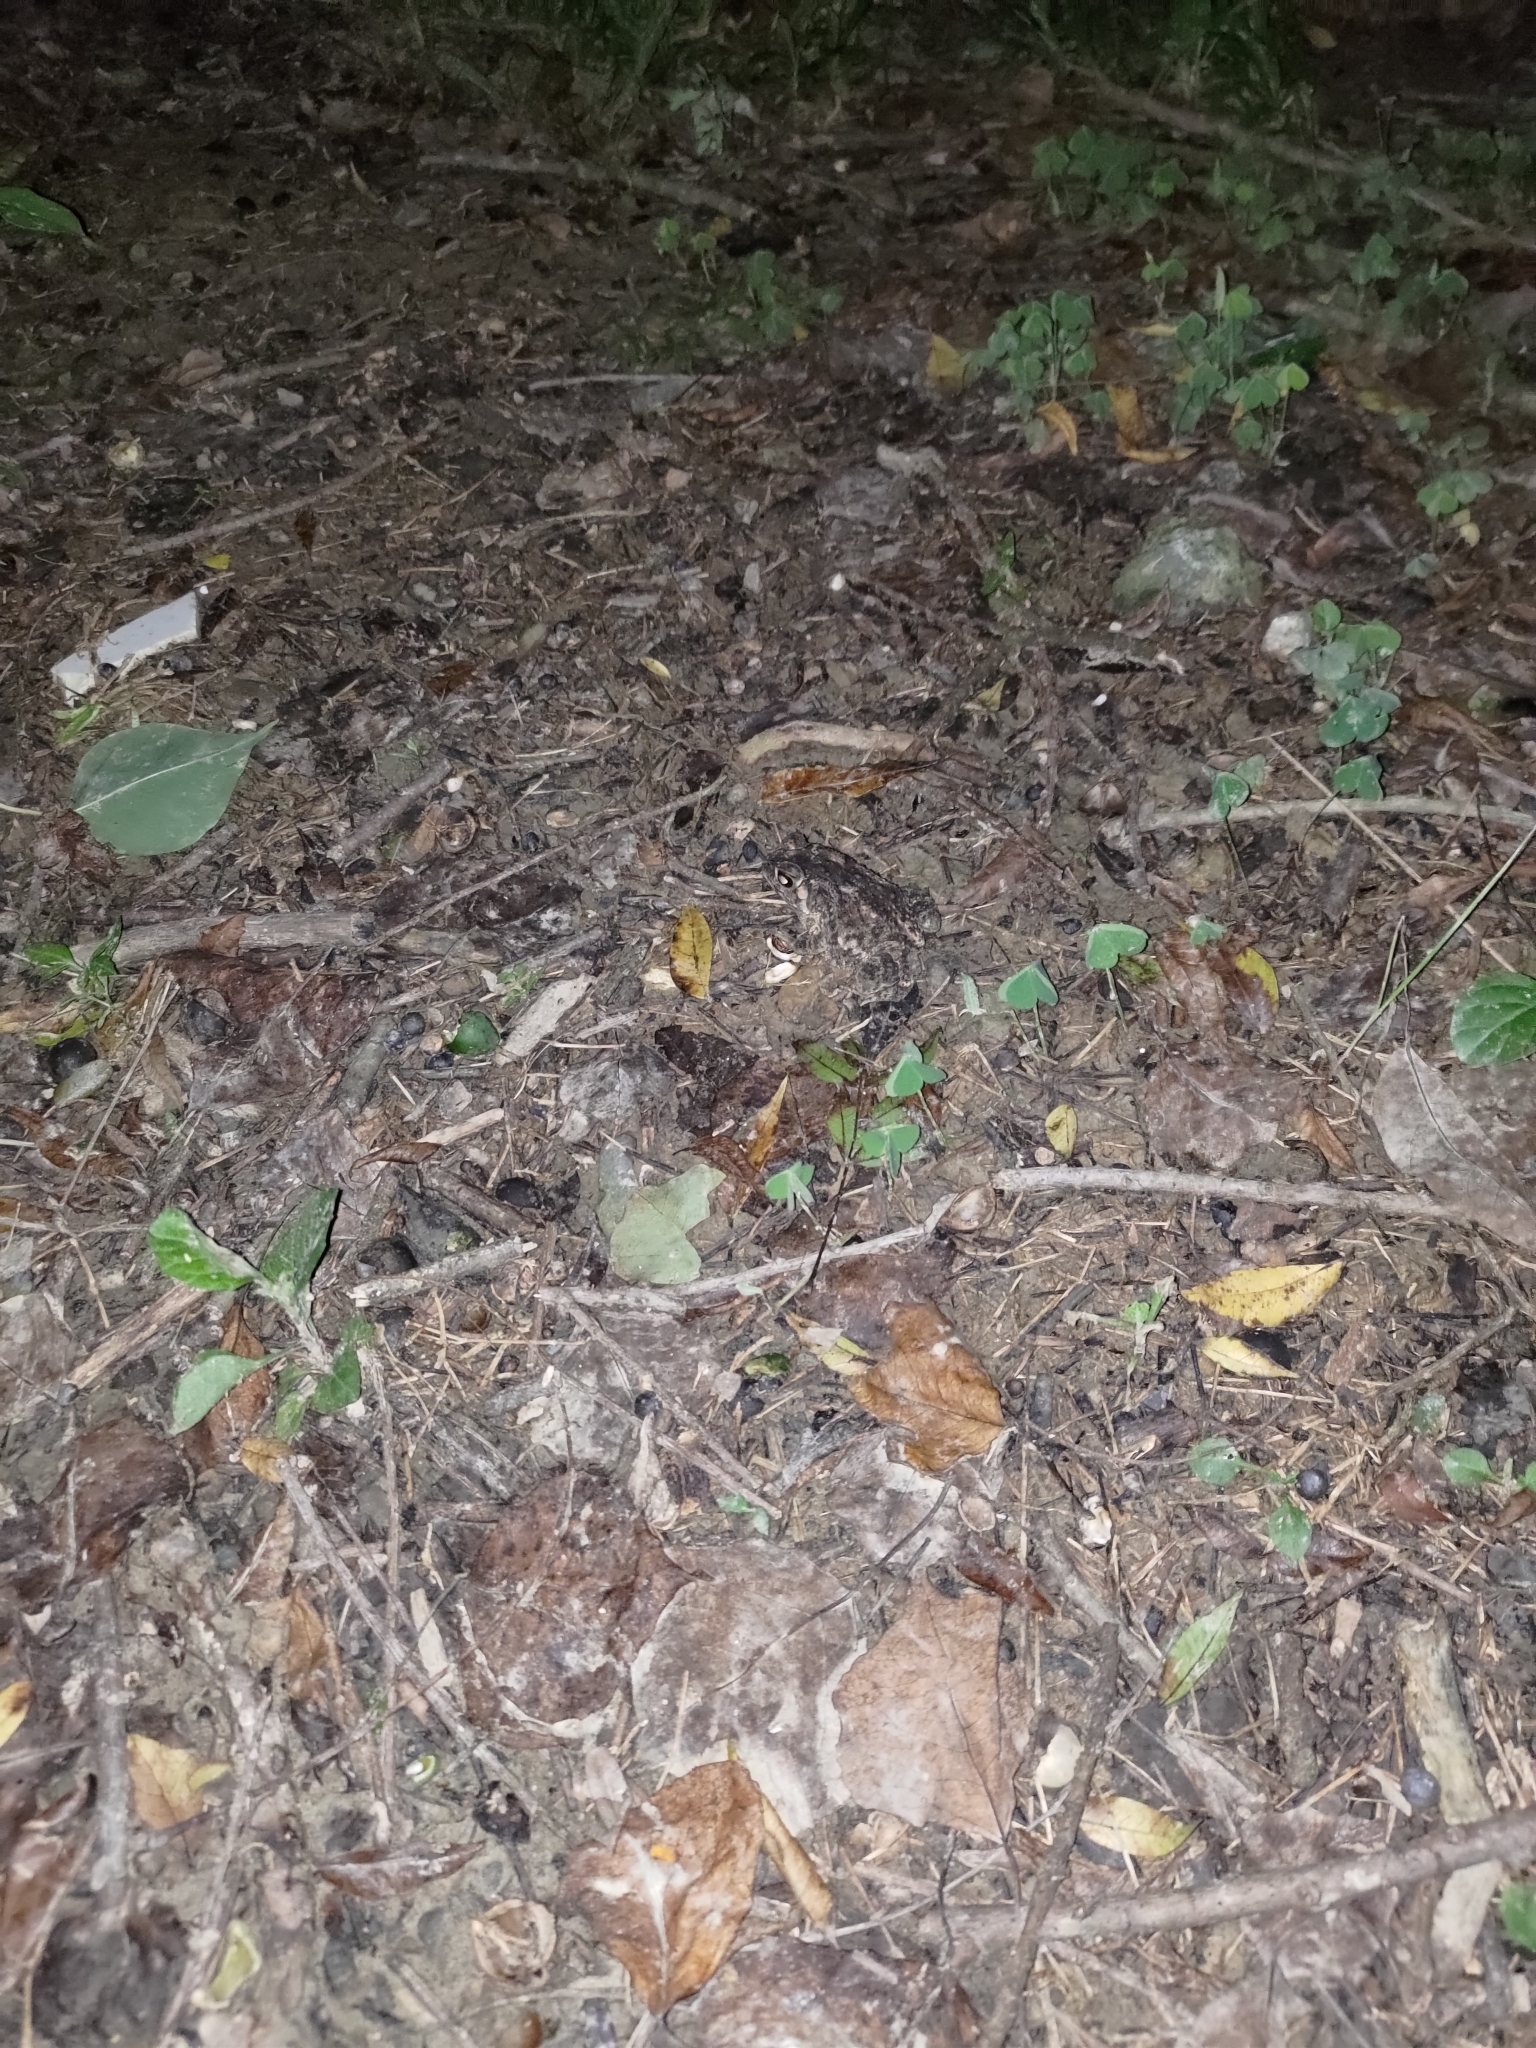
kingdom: Animalia
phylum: Chordata
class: Amphibia
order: Anura
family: Bufonidae
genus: Duttaphrynus
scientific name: Duttaphrynus melanostictus
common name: Common sunda toad
